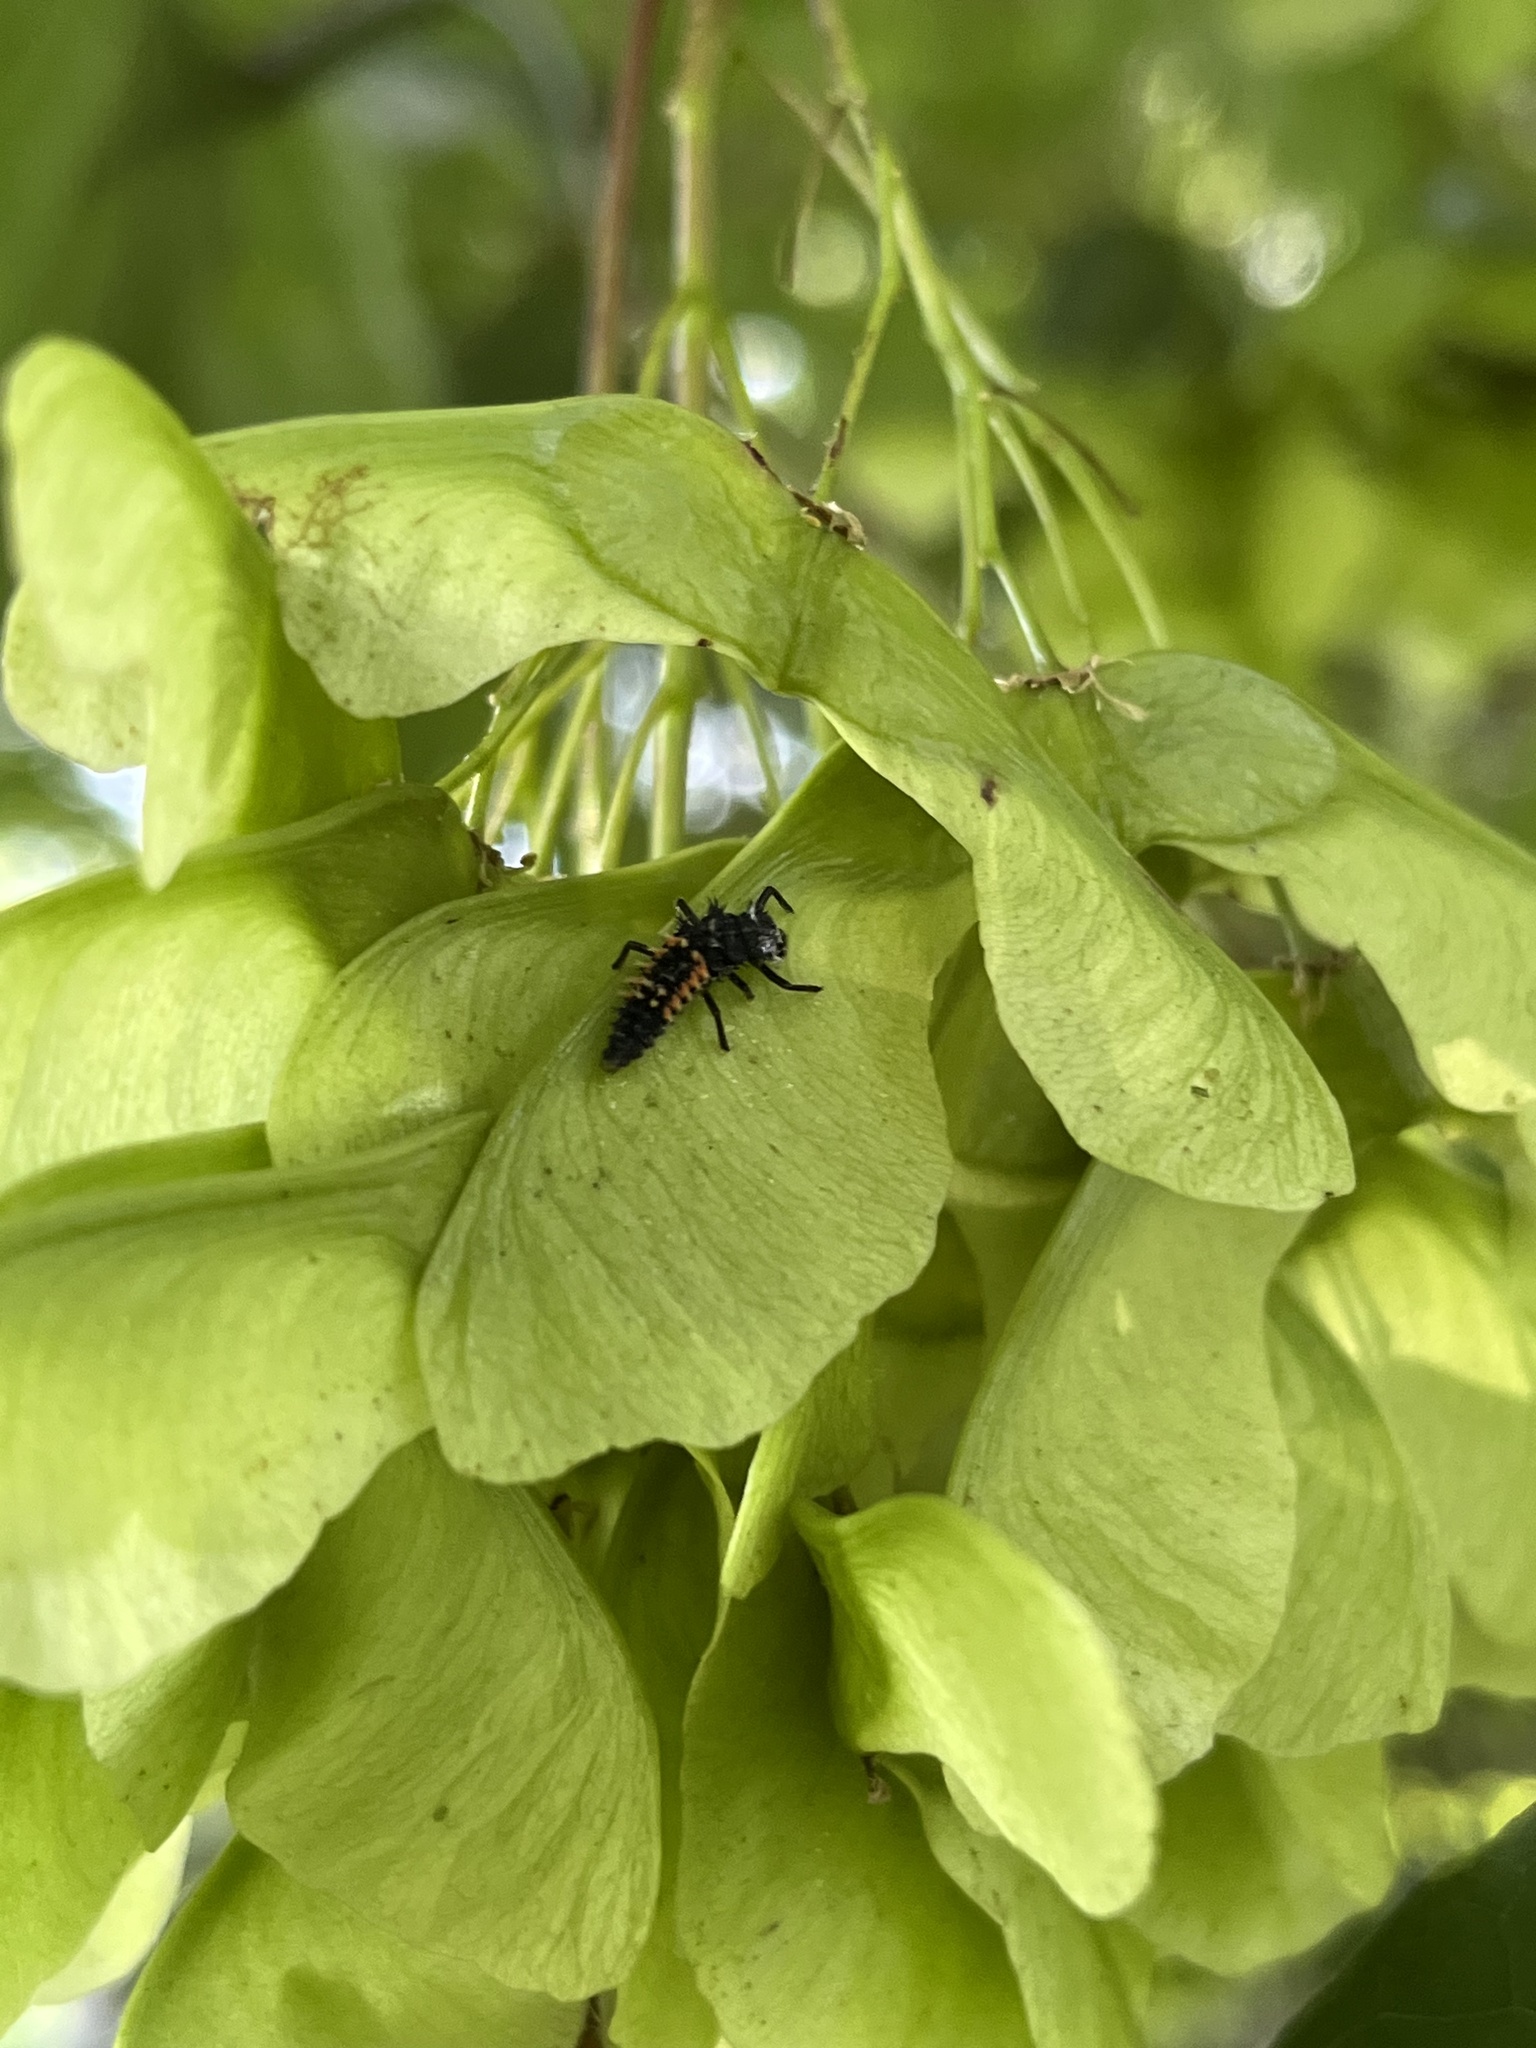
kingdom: Animalia
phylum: Arthropoda
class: Insecta
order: Coleoptera
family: Coccinellidae
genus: Harmonia
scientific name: Harmonia axyridis
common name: Harlequin ladybird
